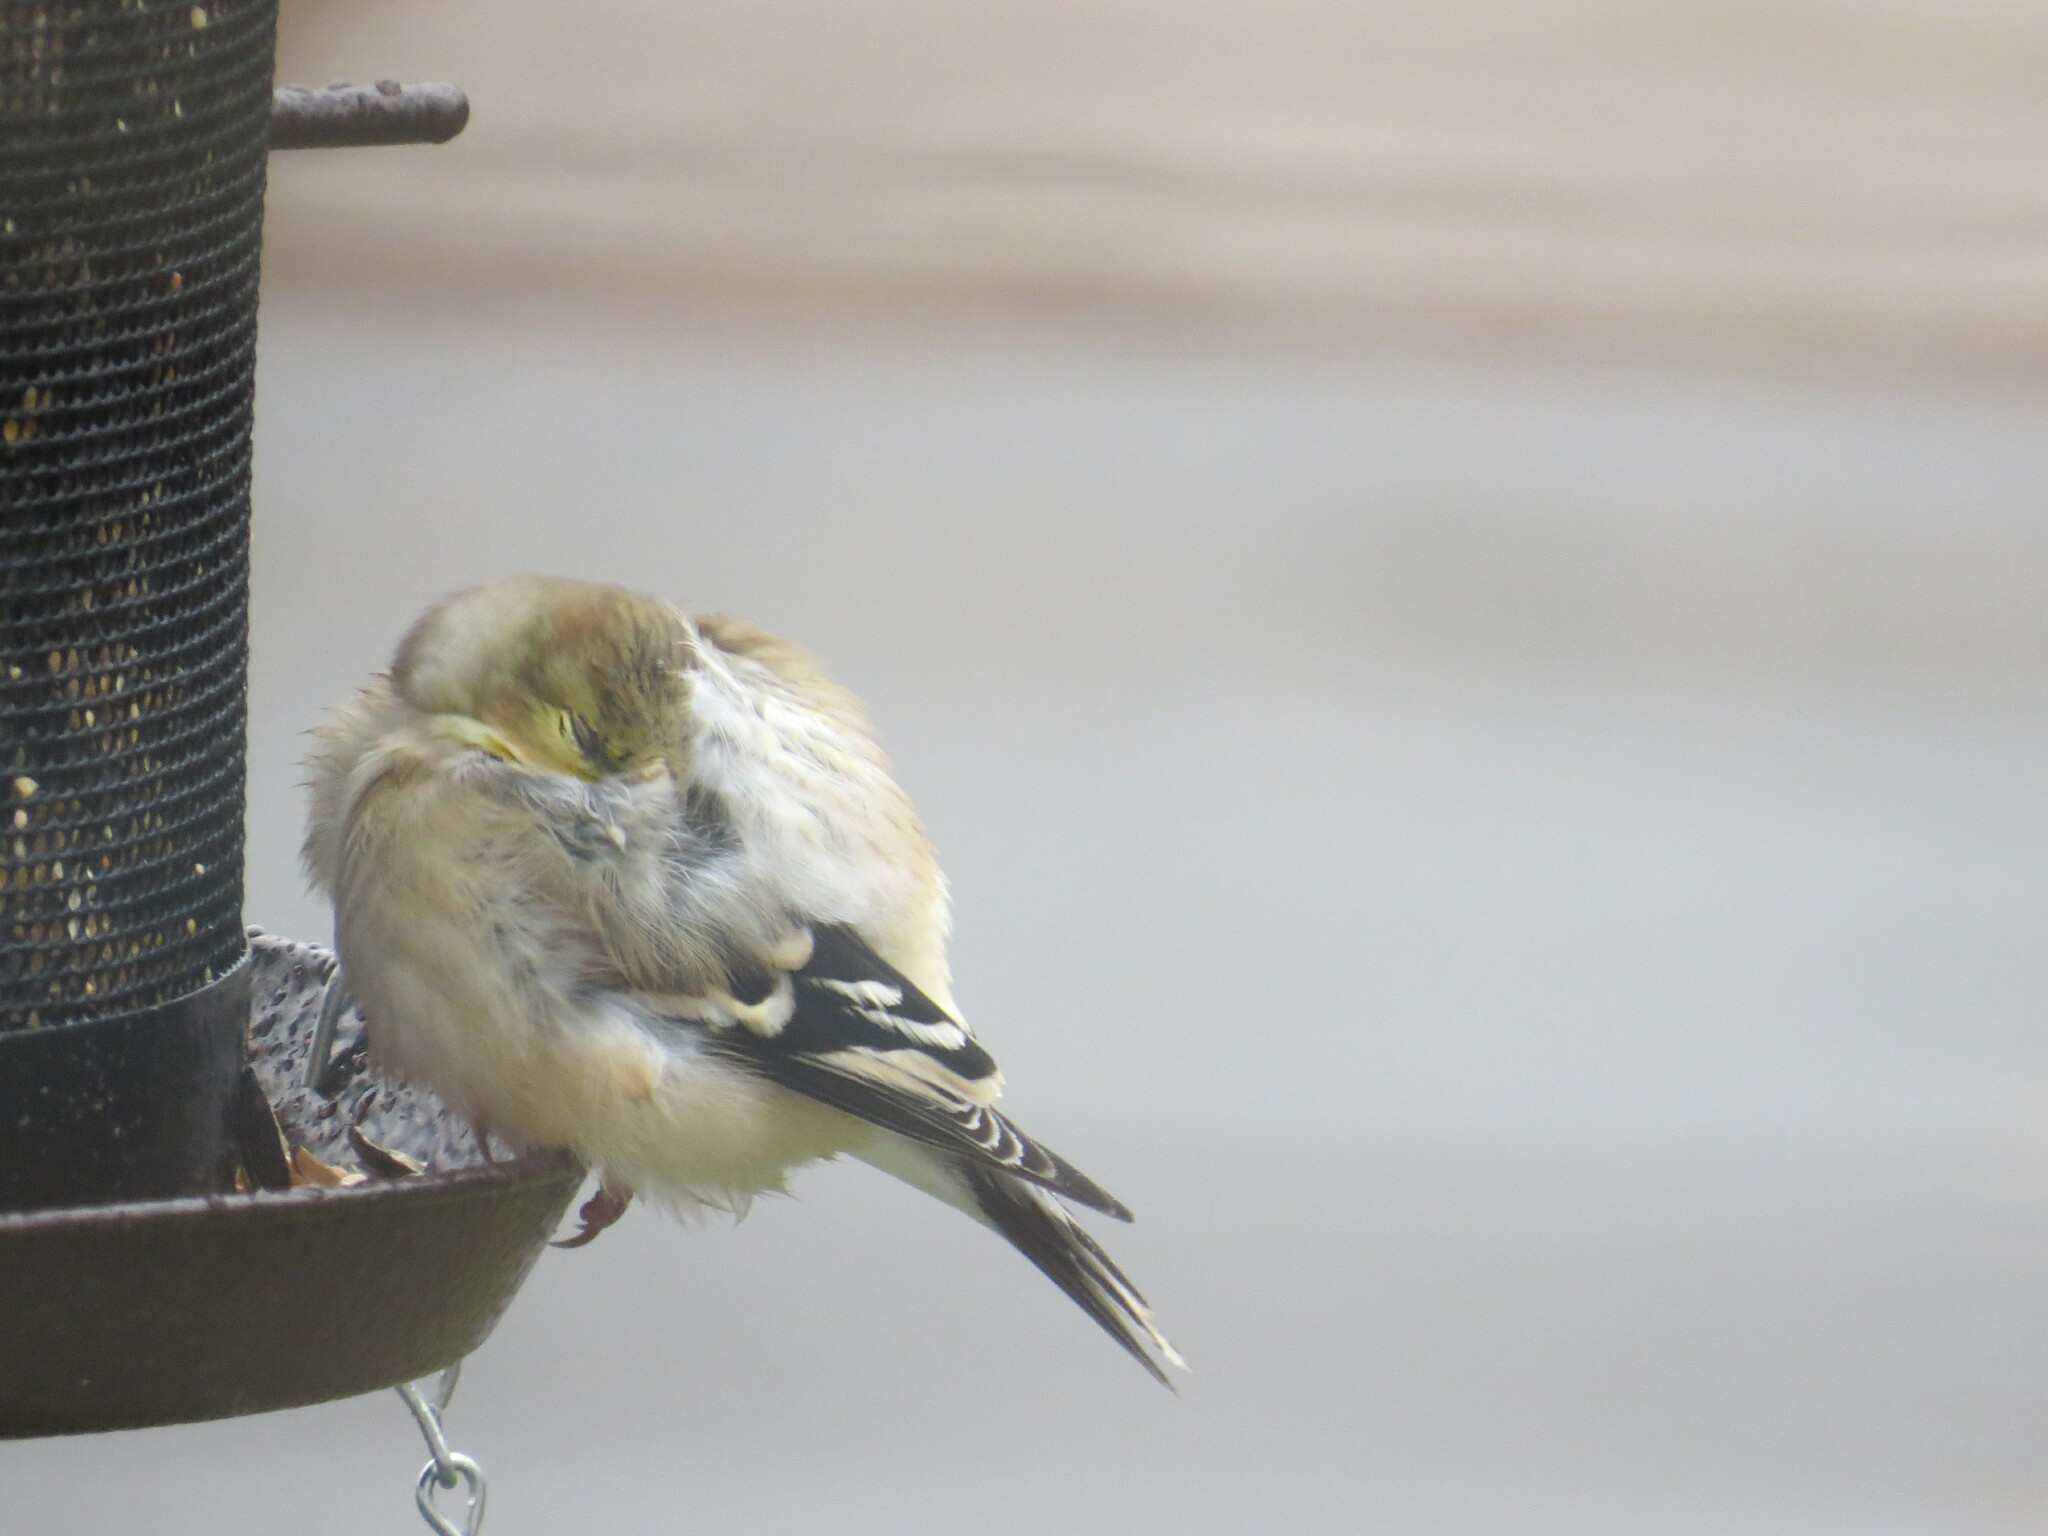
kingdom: Animalia
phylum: Chordata
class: Aves
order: Passeriformes
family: Fringillidae
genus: Spinus
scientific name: Spinus tristis
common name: American goldfinch
